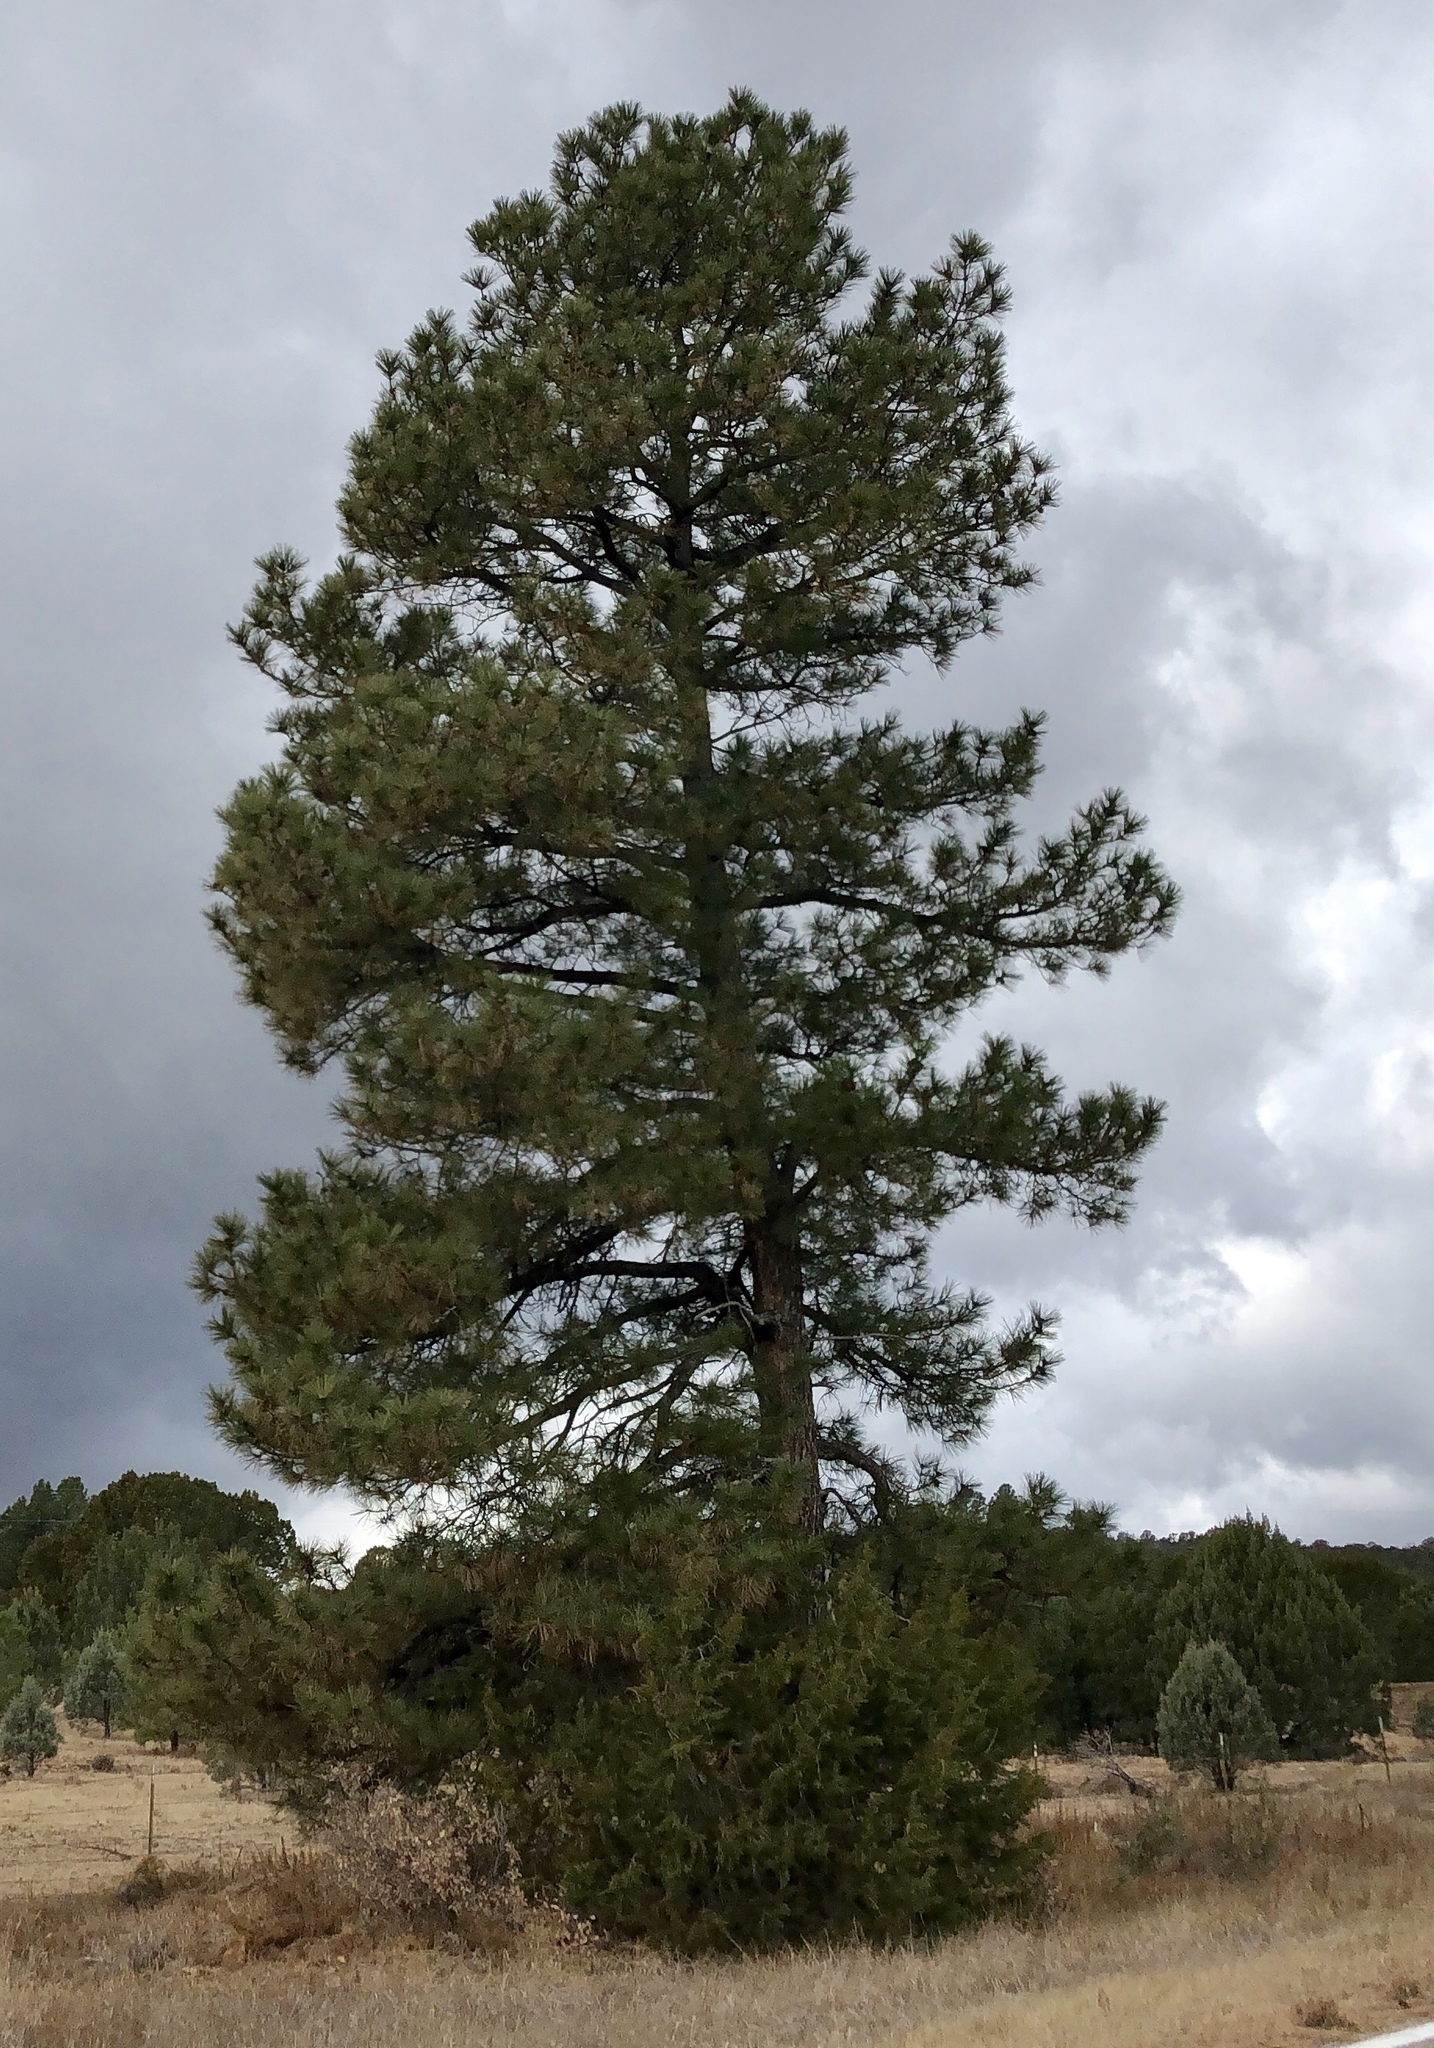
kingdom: Plantae
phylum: Tracheophyta
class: Pinopsida
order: Pinales
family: Pinaceae
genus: Pinus
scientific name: Pinus ponderosa
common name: Western yellow-pine
